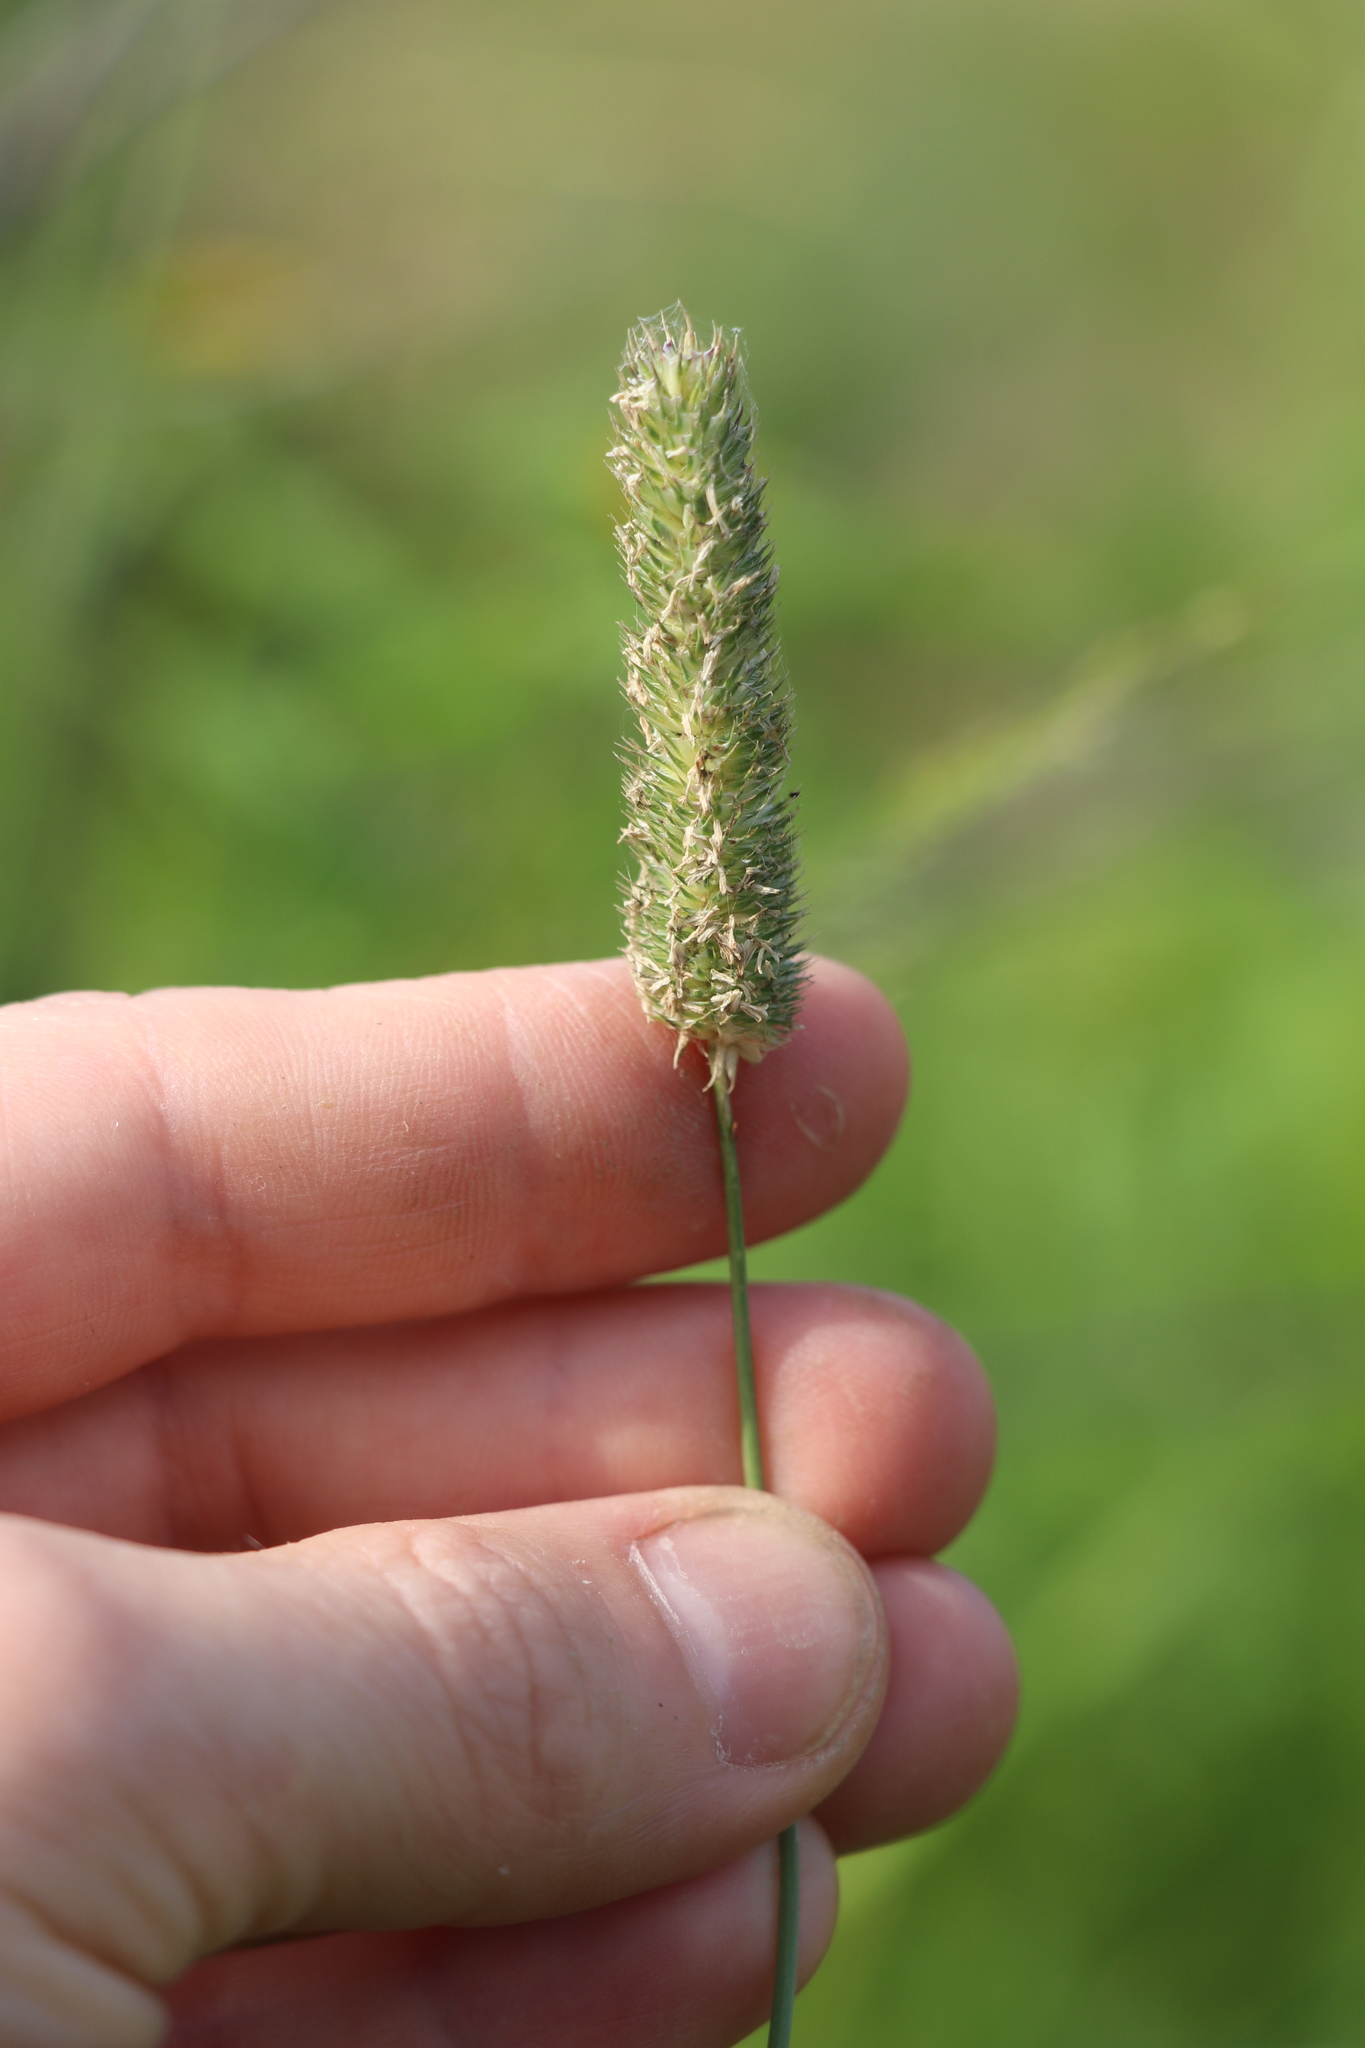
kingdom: Plantae
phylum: Tracheophyta
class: Liliopsida
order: Poales
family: Poaceae
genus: Phleum
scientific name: Phleum pratense
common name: Timothy grass
